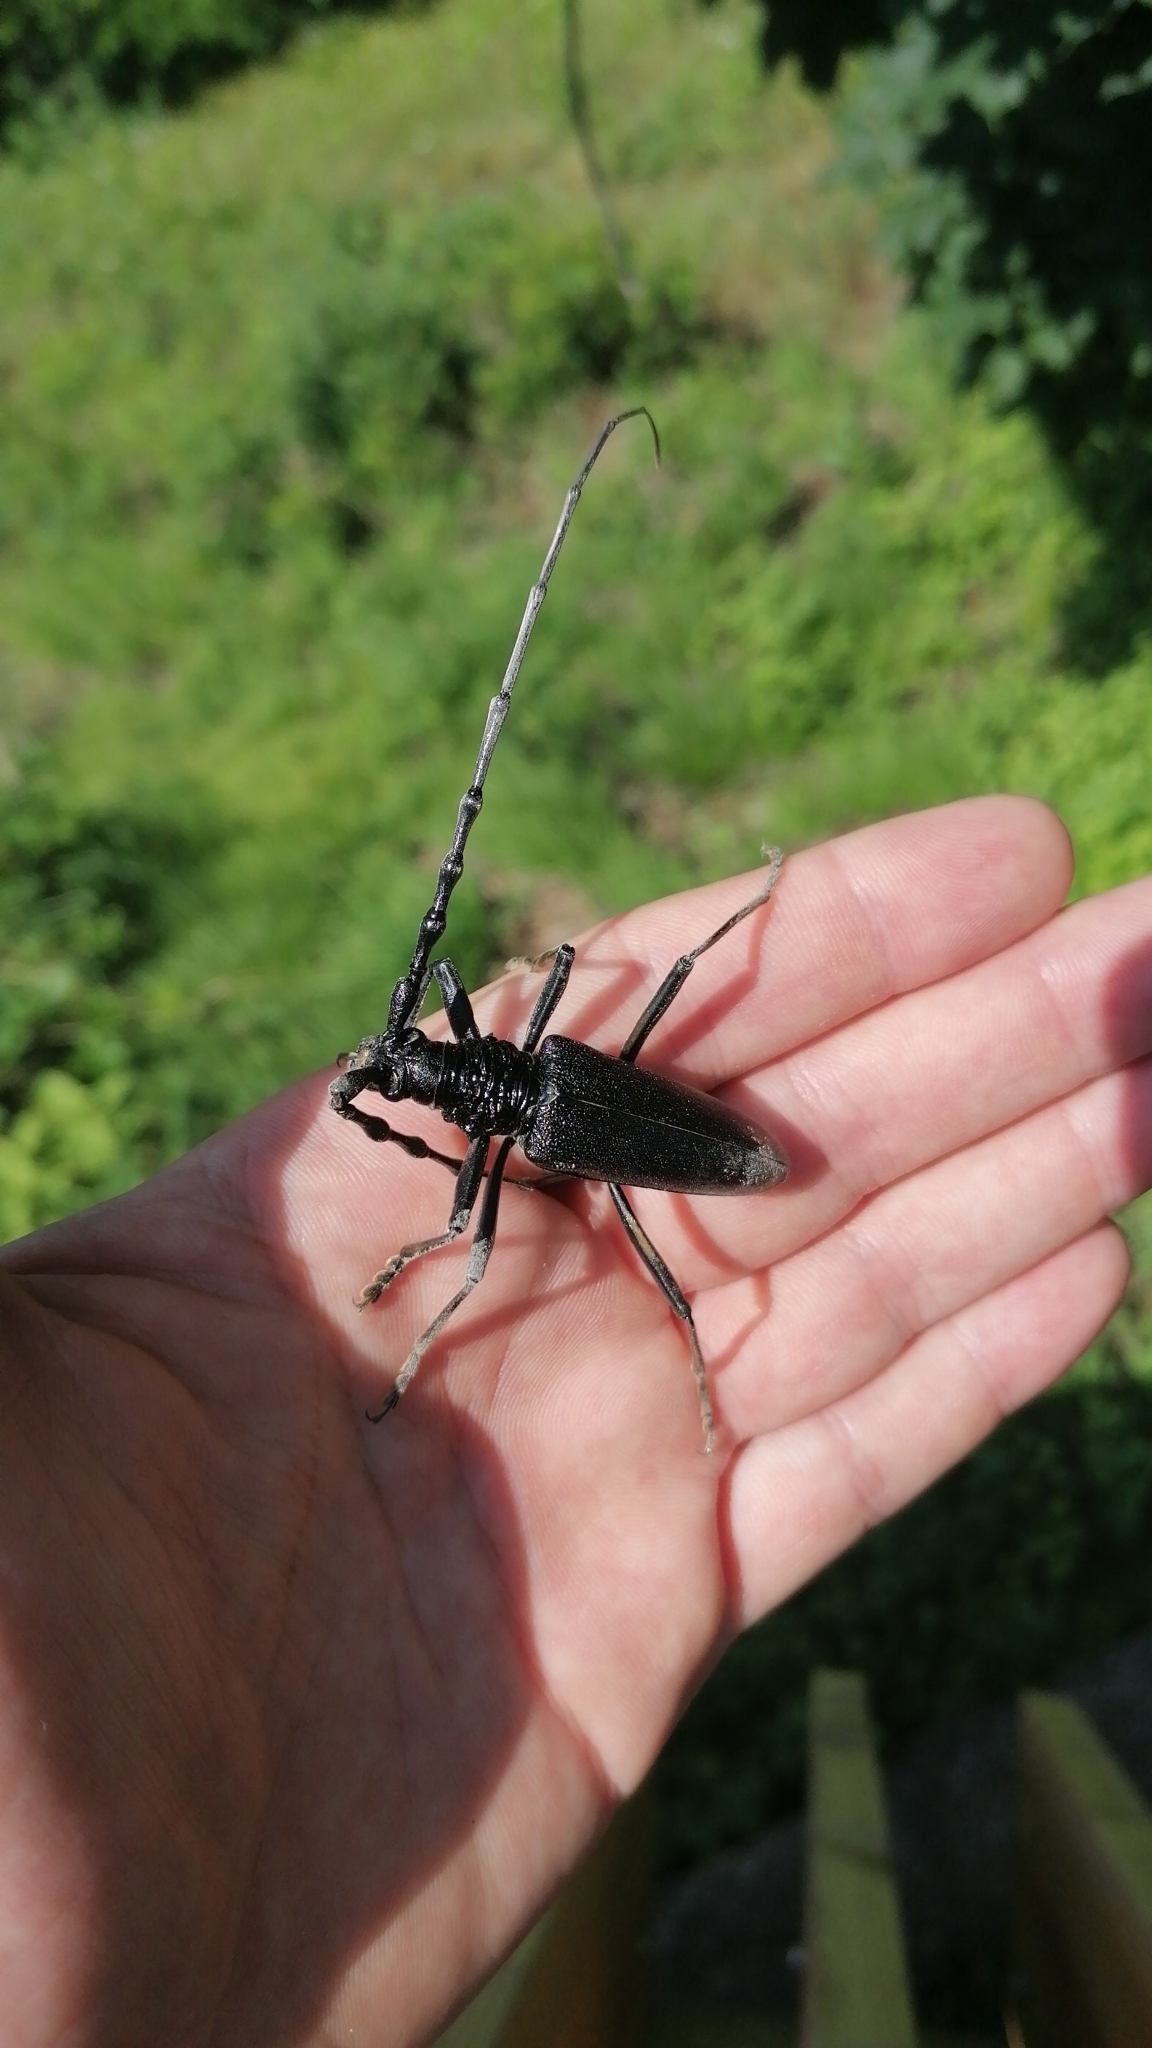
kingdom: Animalia
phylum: Arthropoda
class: Insecta
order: Coleoptera
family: Cerambycidae
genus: Cerambyx
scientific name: Cerambyx cerdo
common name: Cerambyx longicorn
